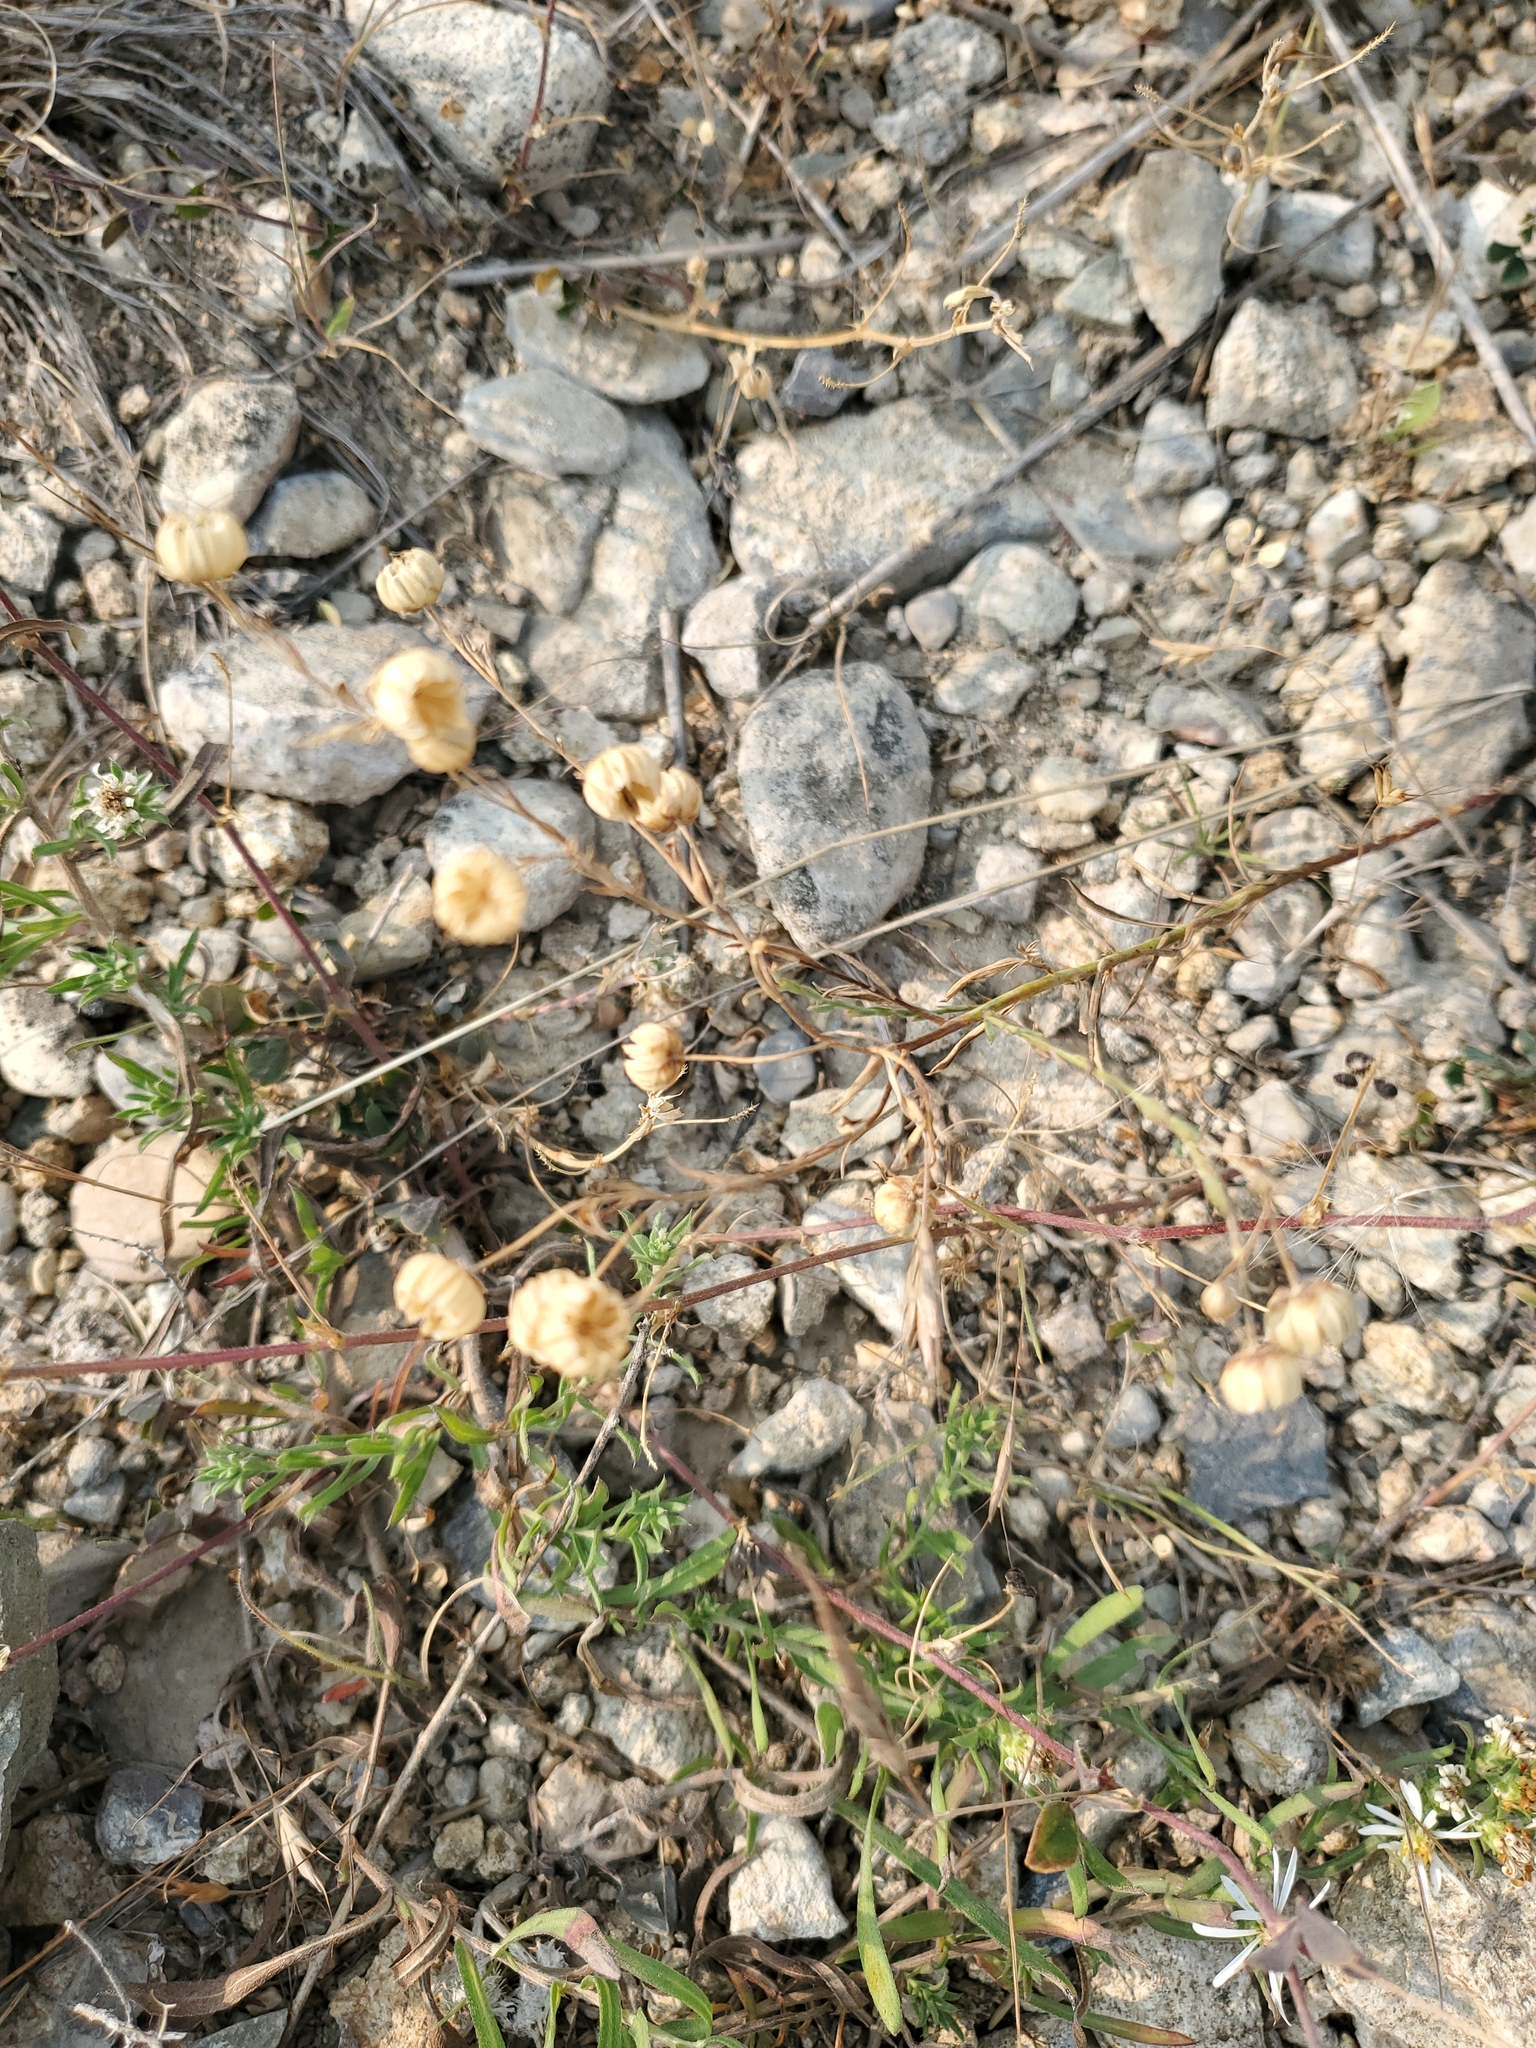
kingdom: Plantae
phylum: Tracheophyta
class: Magnoliopsida
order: Malpighiales
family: Linaceae
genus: Linum
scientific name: Linum lewisii
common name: Prairie flax
